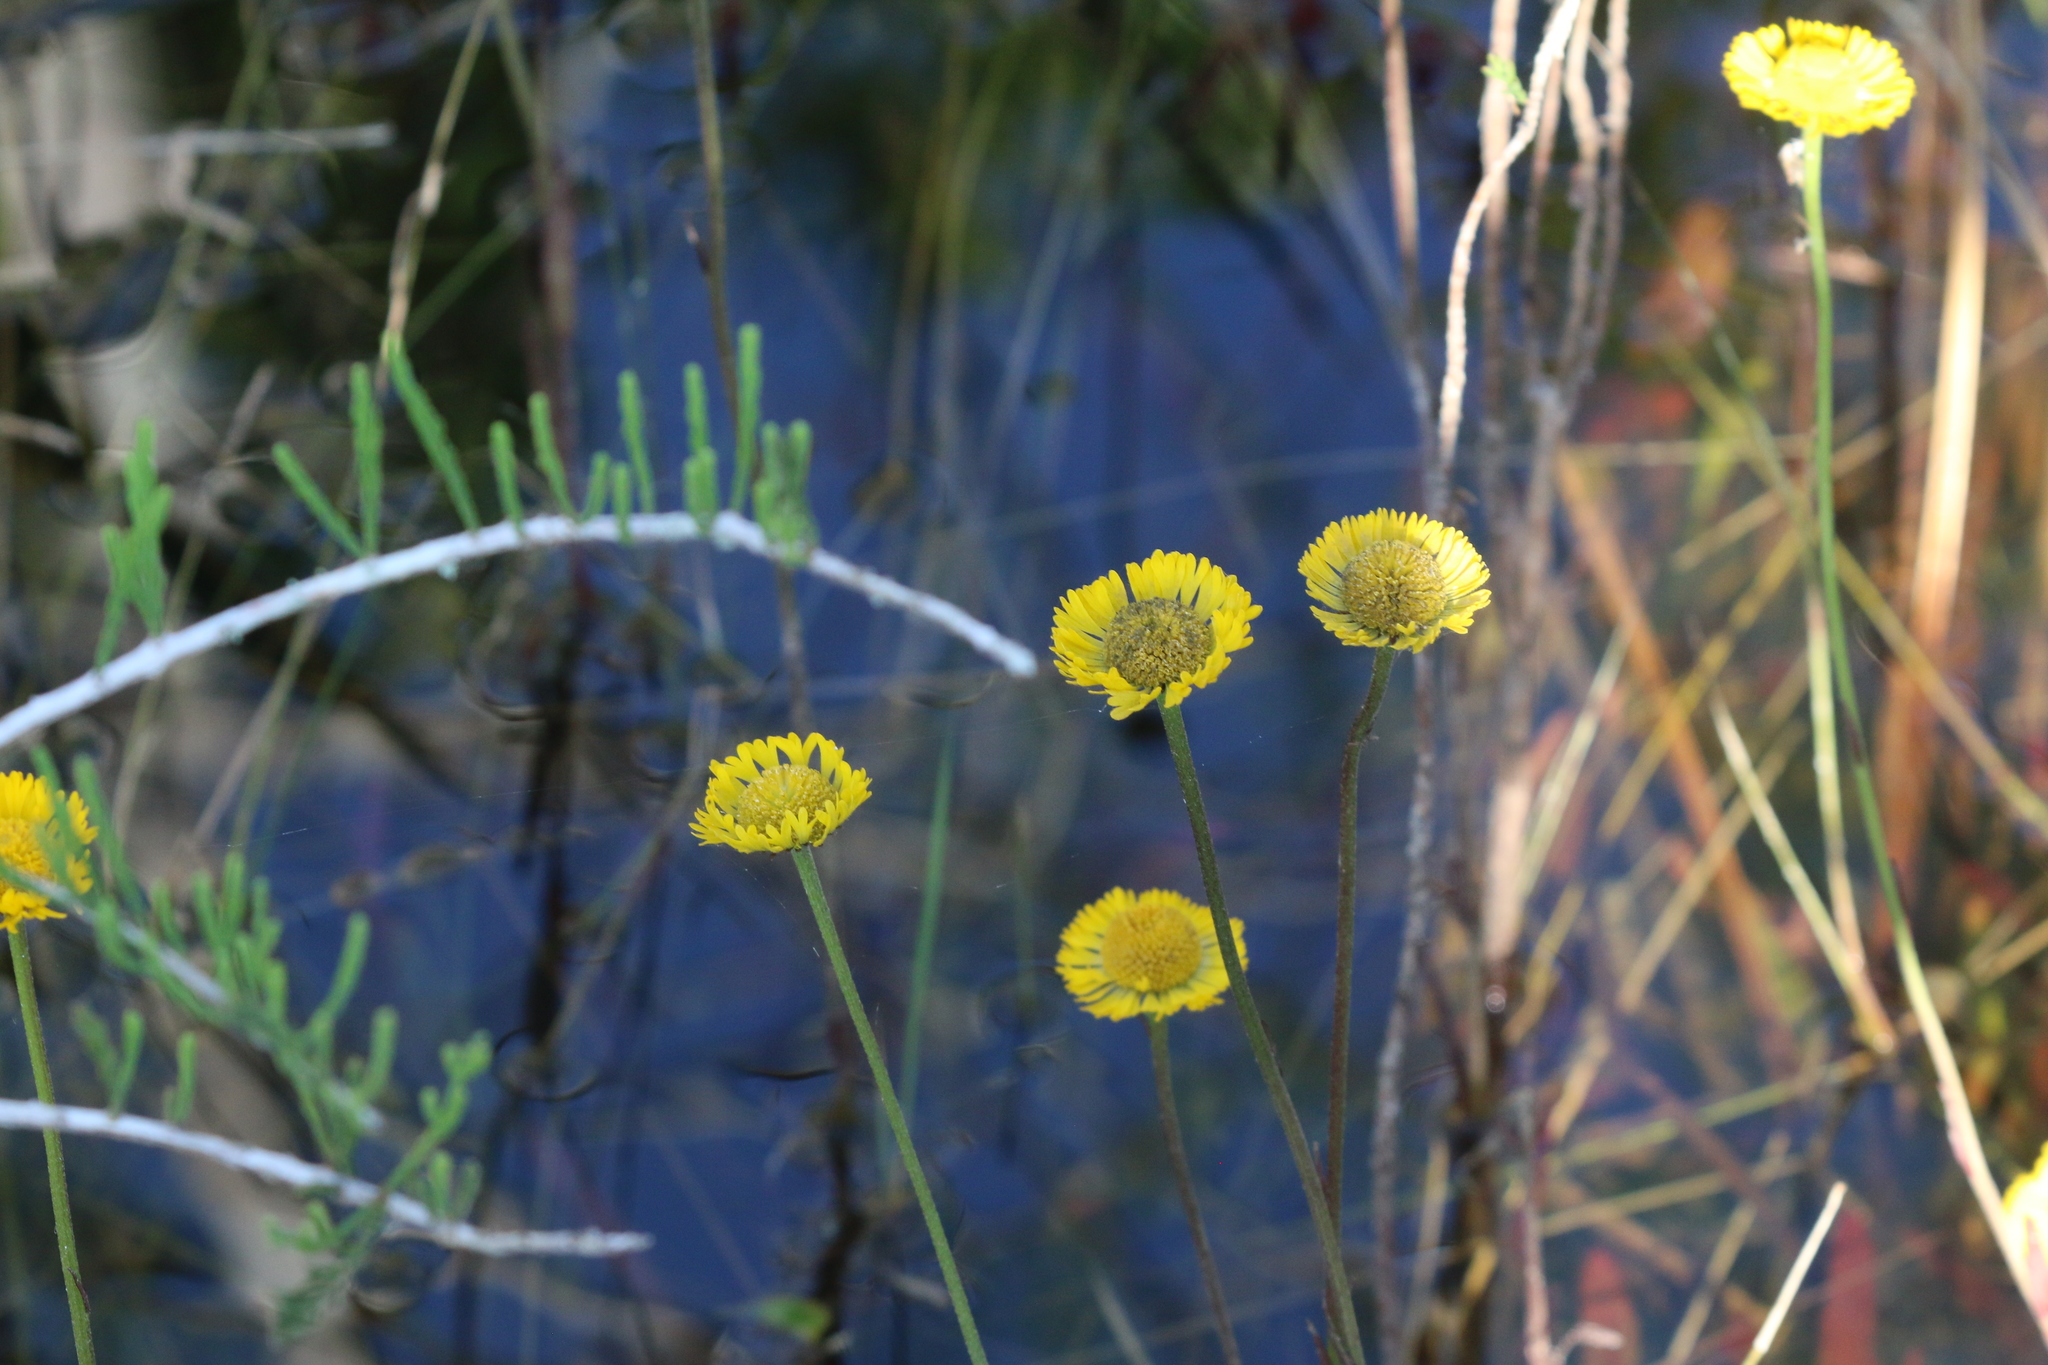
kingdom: Plantae
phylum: Tracheophyta
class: Magnoliopsida
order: Asterales
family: Asteraceae
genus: Helenium
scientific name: Helenium pinnatifidum
